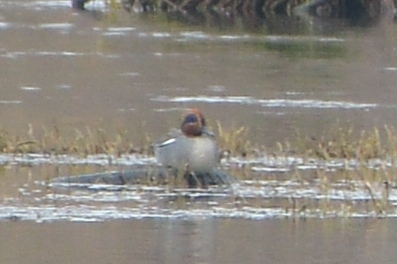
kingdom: Animalia
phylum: Chordata
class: Aves
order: Anseriformes
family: Anatidae
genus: Anas
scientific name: Anas crecca
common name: Eurasian teal
